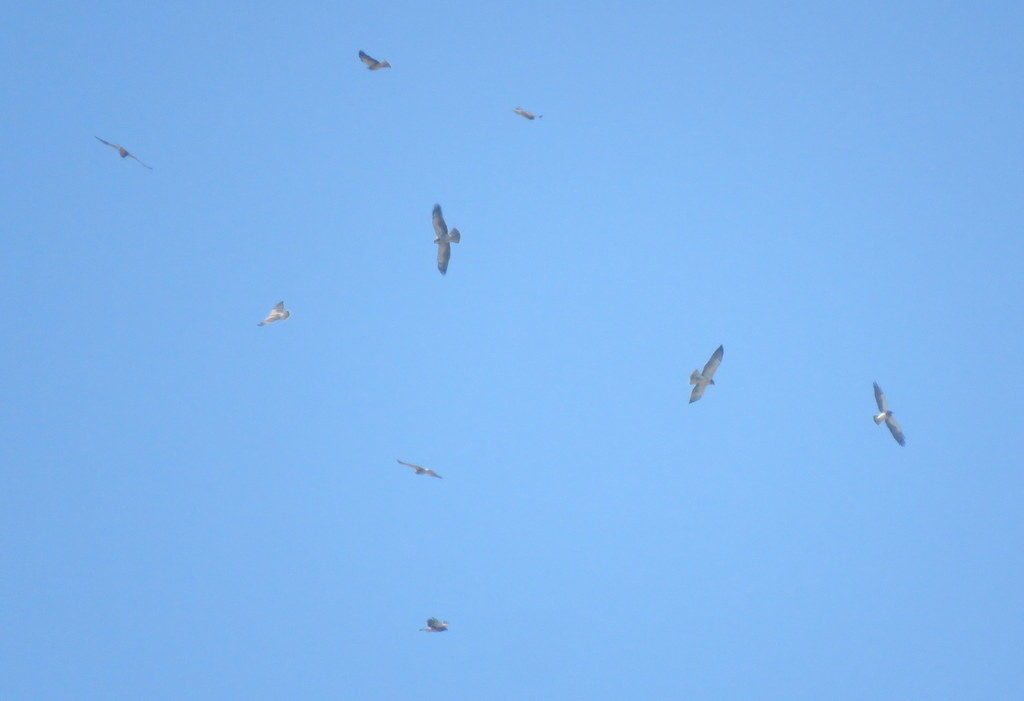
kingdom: Animalia
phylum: Chordata
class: Aves
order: Accipitriformes
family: Accipitridae
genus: Buteo
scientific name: Buteo swainsoni
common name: Swainson's hawk
